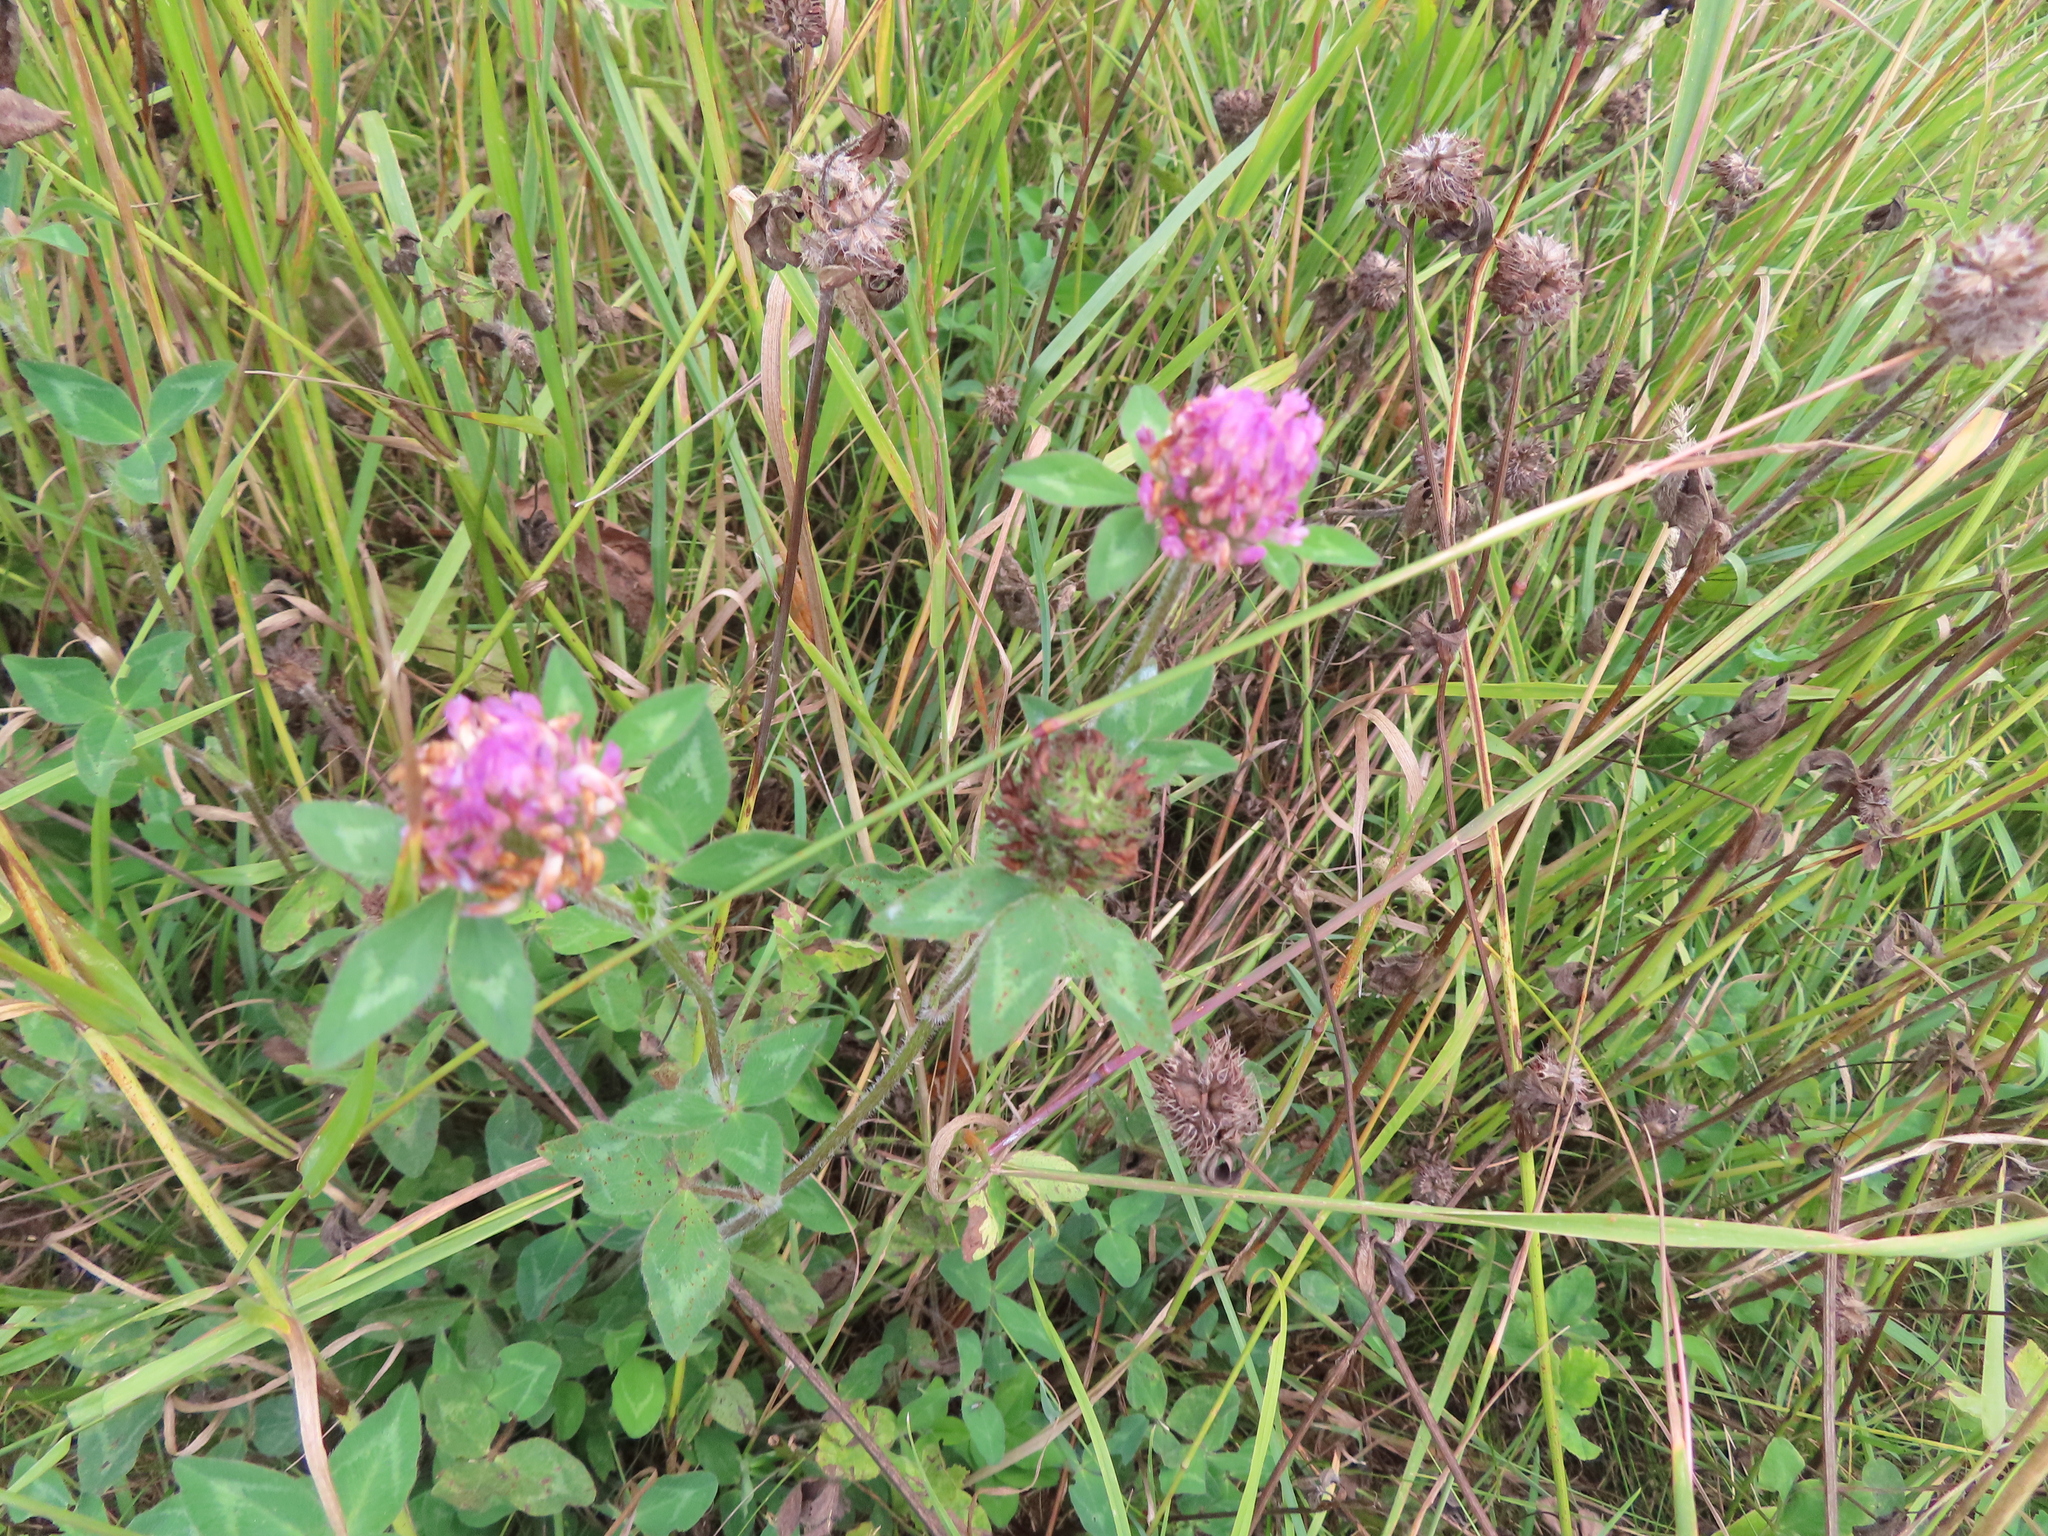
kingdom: Plantae
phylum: Tracheophyta
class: Magnoliopsida
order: Fabales
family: Fabaceae
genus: Trifolium
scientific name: Trifolium pratense
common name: Red clover
